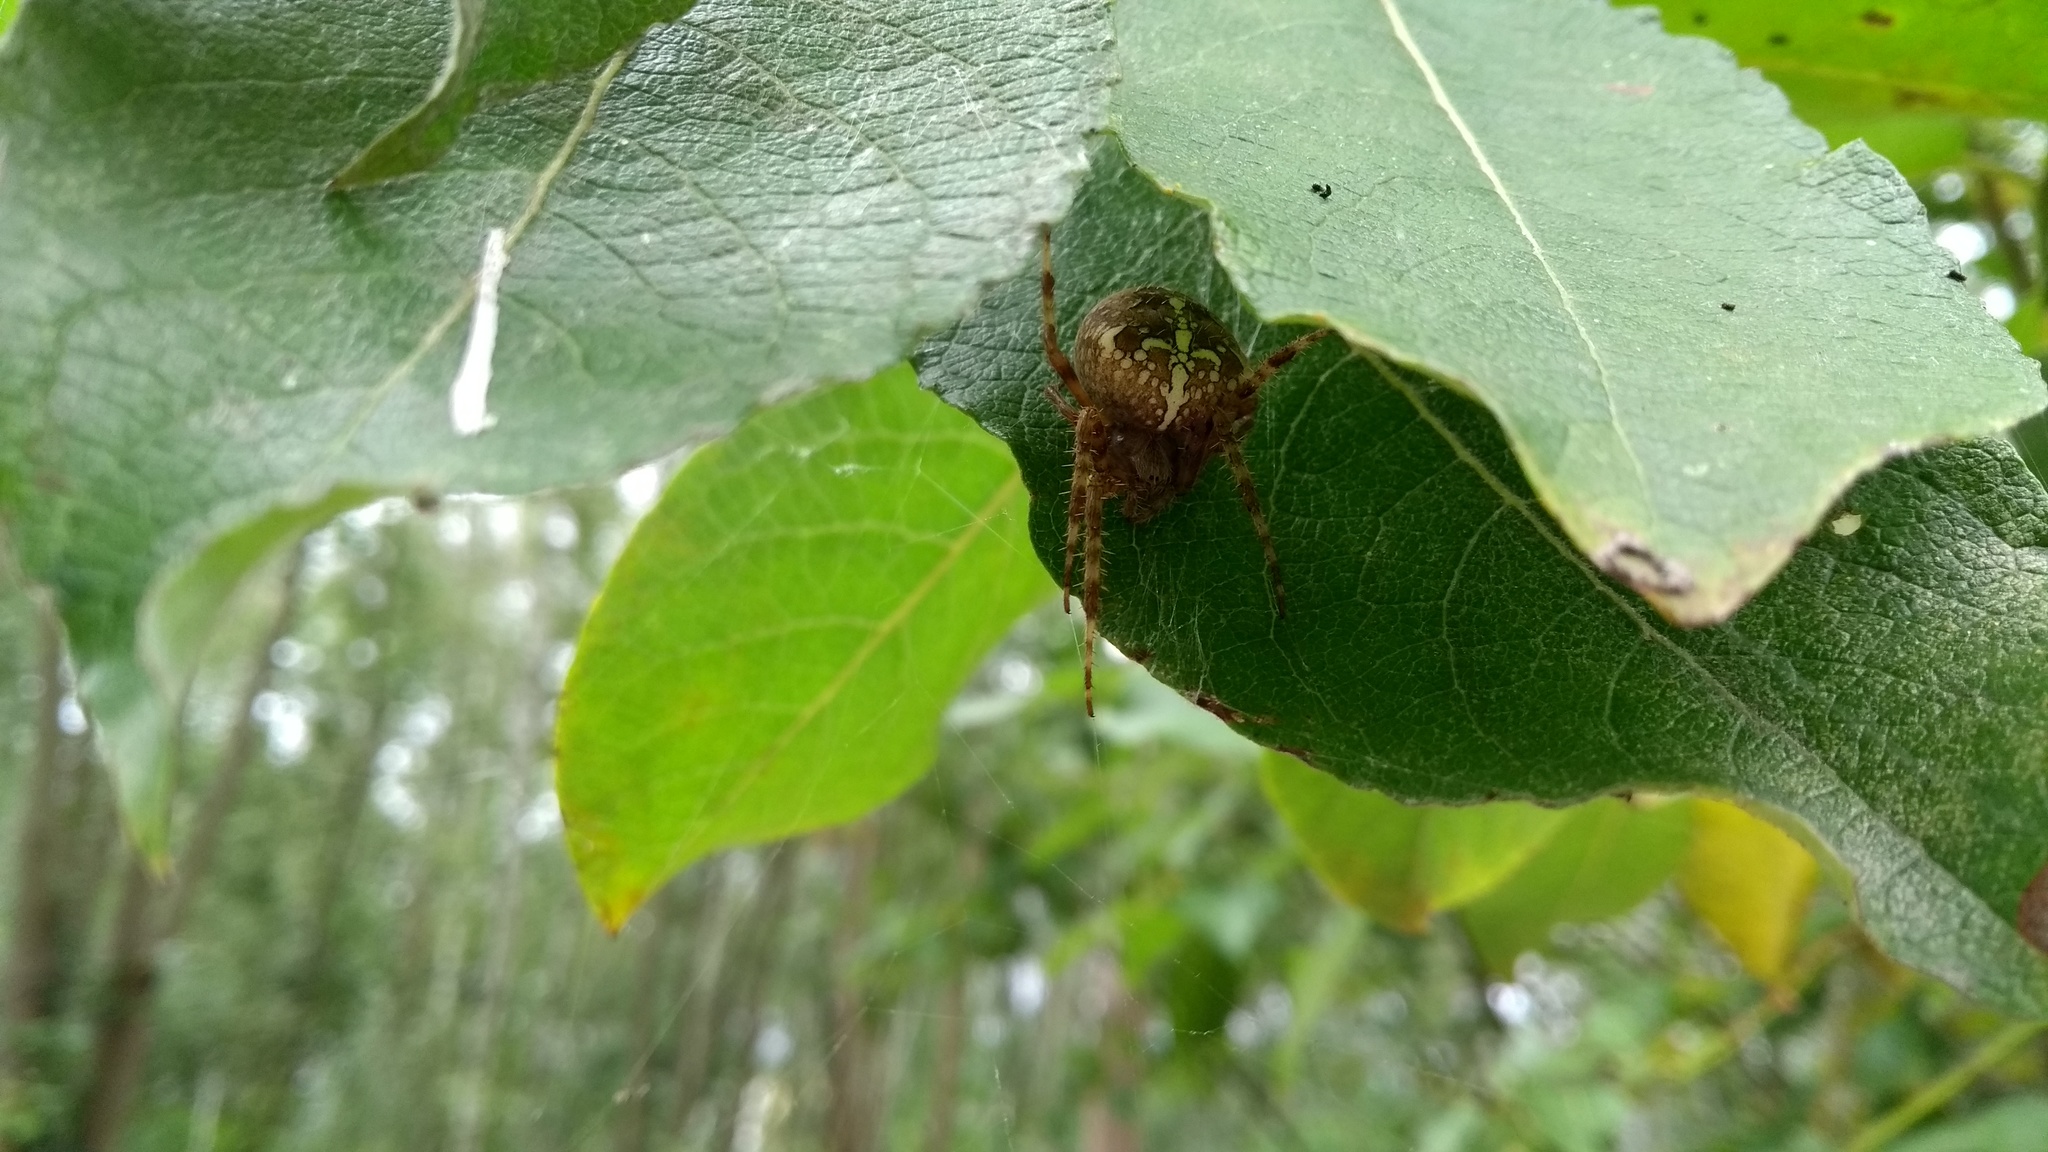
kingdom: Animalia
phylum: Arthropoda
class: Arachnida
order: Araneae
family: Araneidae
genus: Araneus
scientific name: Araneus diadematus
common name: Cross orbweaver
